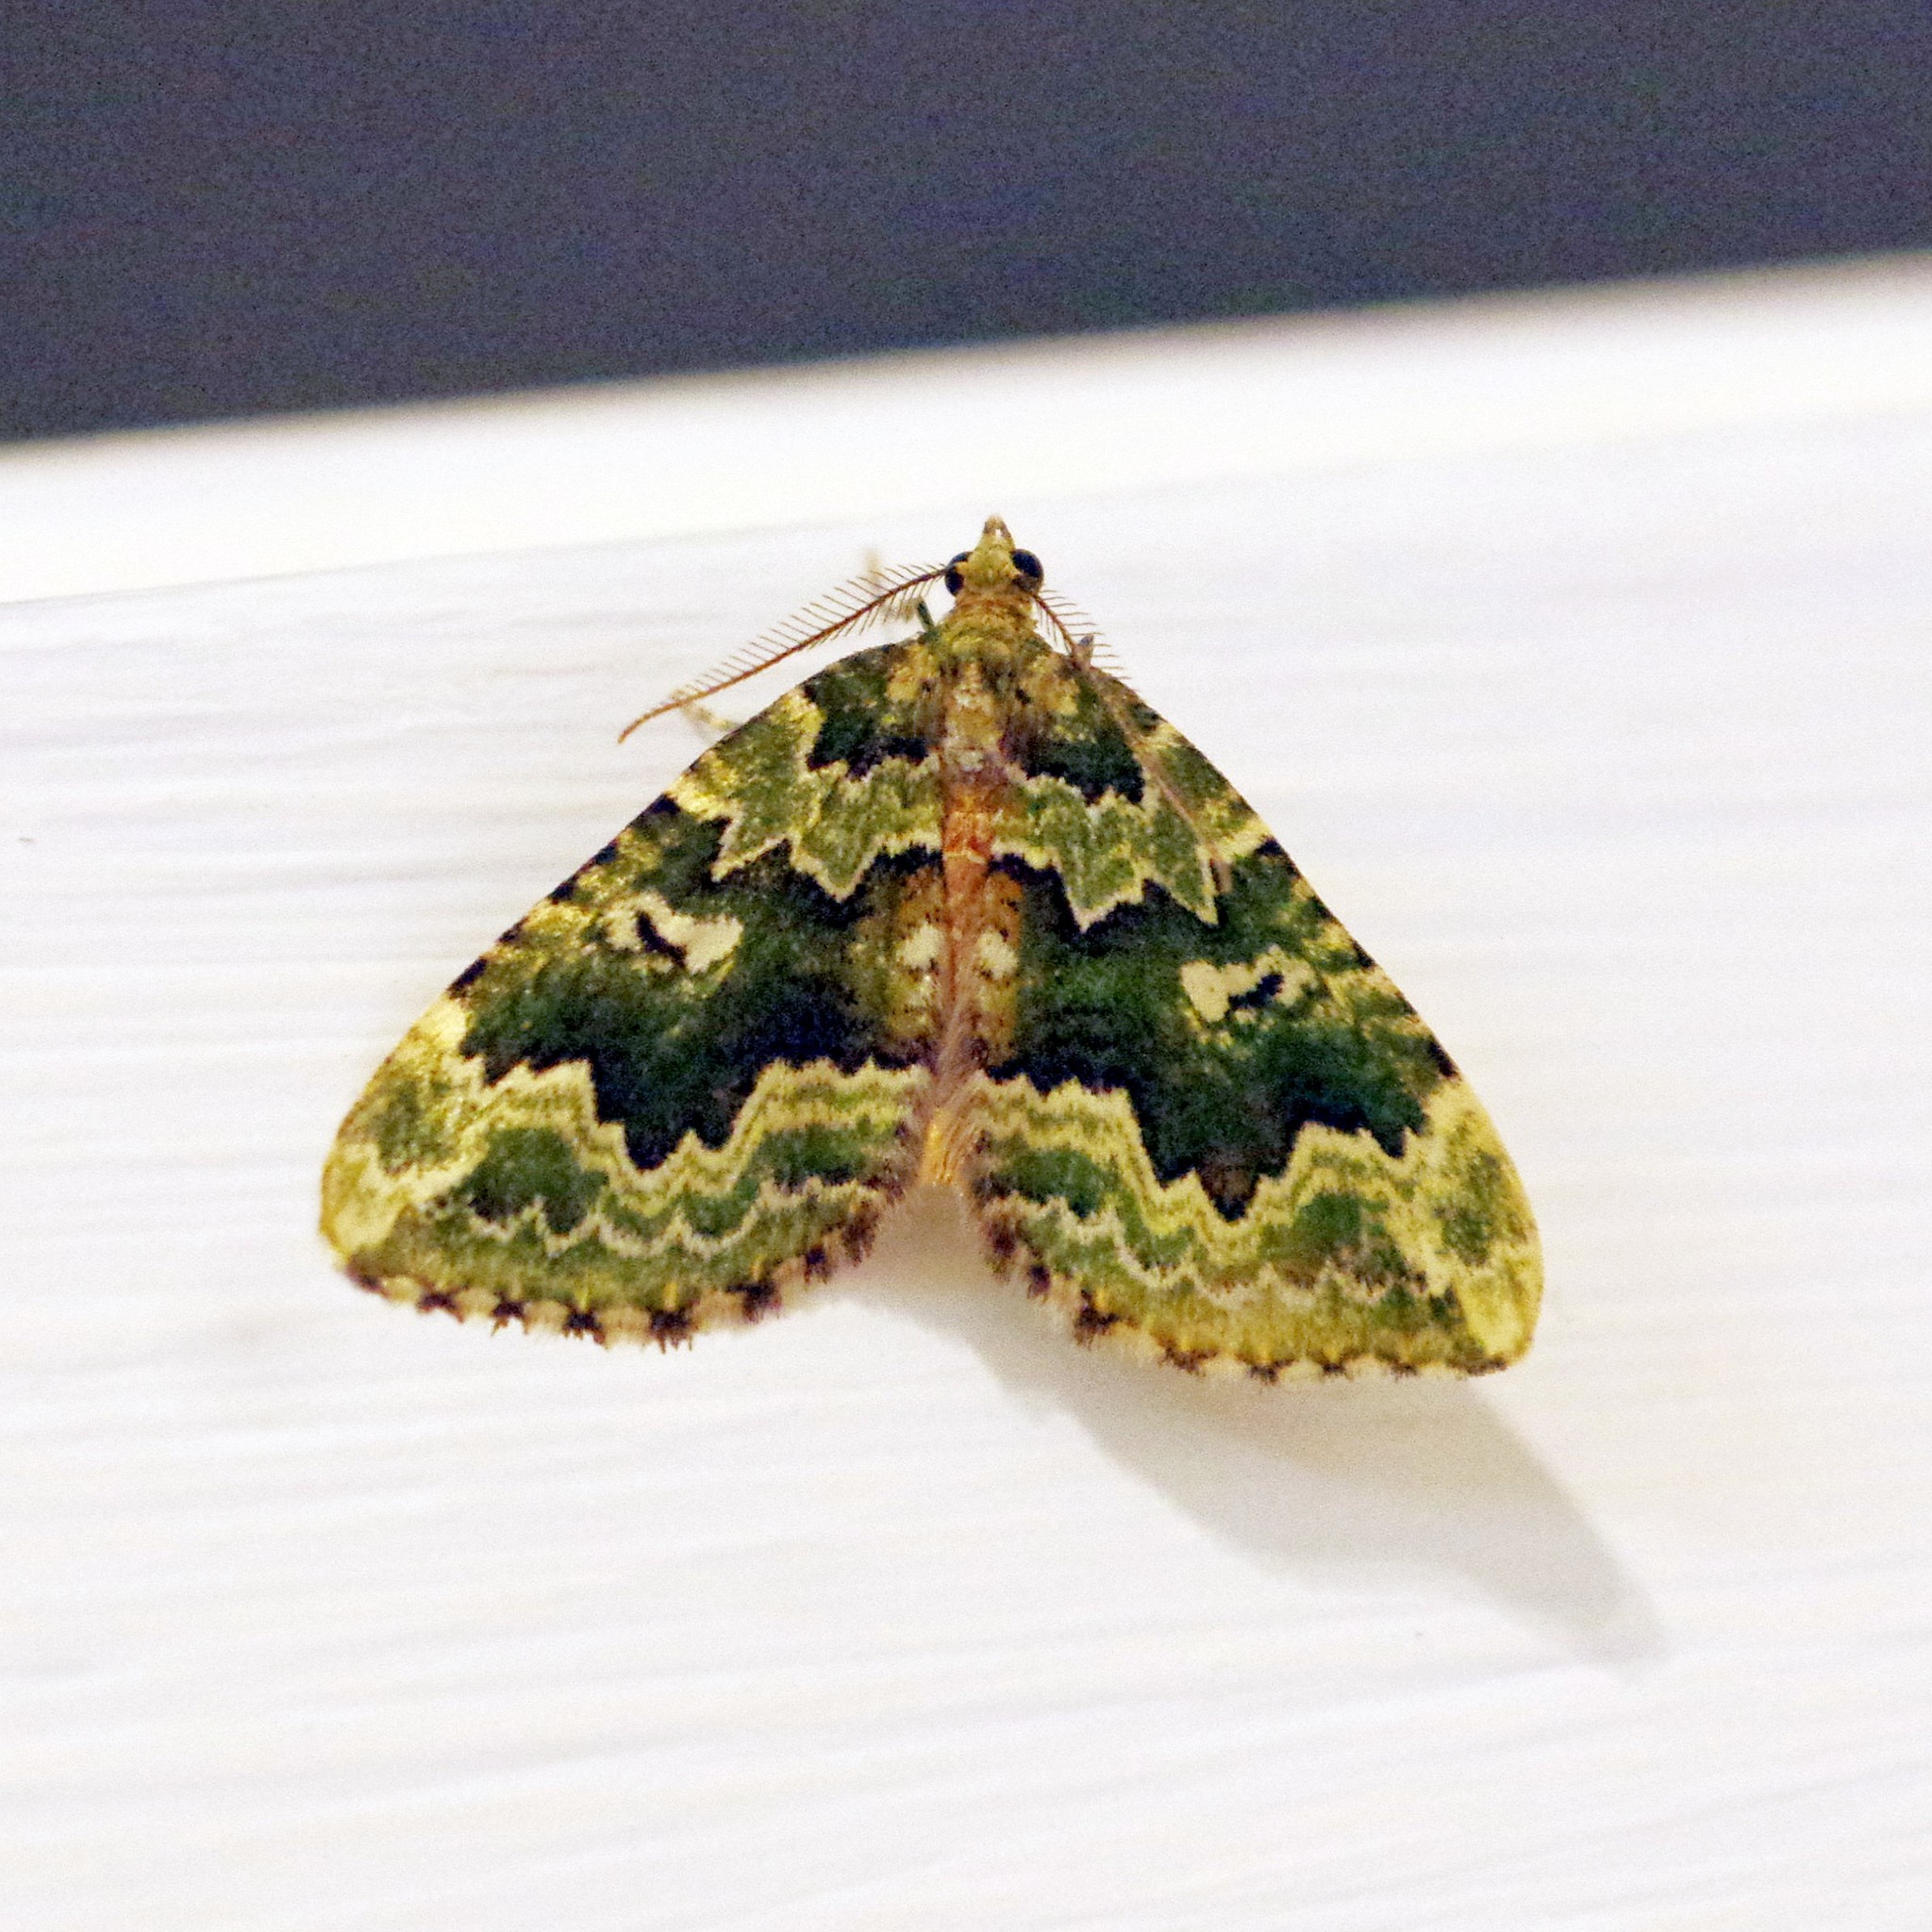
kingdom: Animalia
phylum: Arthropoda
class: Insecta
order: Lepidoptera
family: Geometridae
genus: Asaphodes
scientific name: Asaphodes beata
